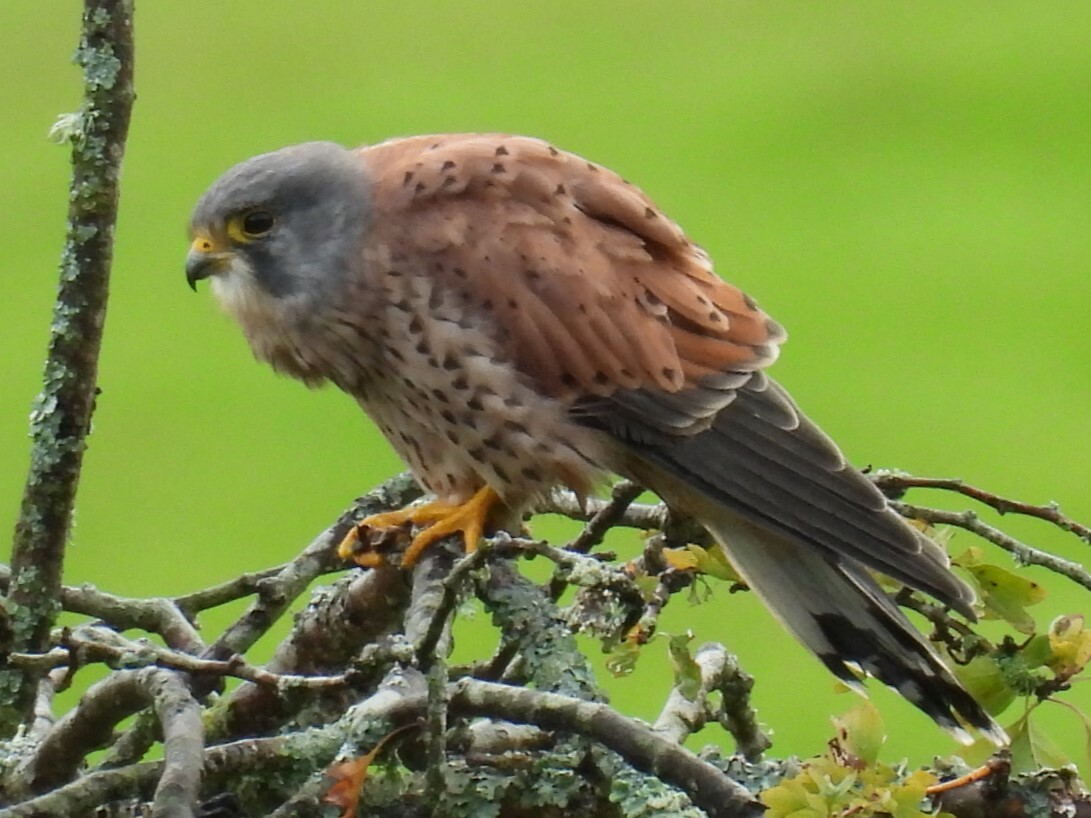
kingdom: Animalia
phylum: Chordata
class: Aves
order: Falconiformes
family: Falconidae
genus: Falco
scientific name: Falco tinnunculus
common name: Common kestrel
